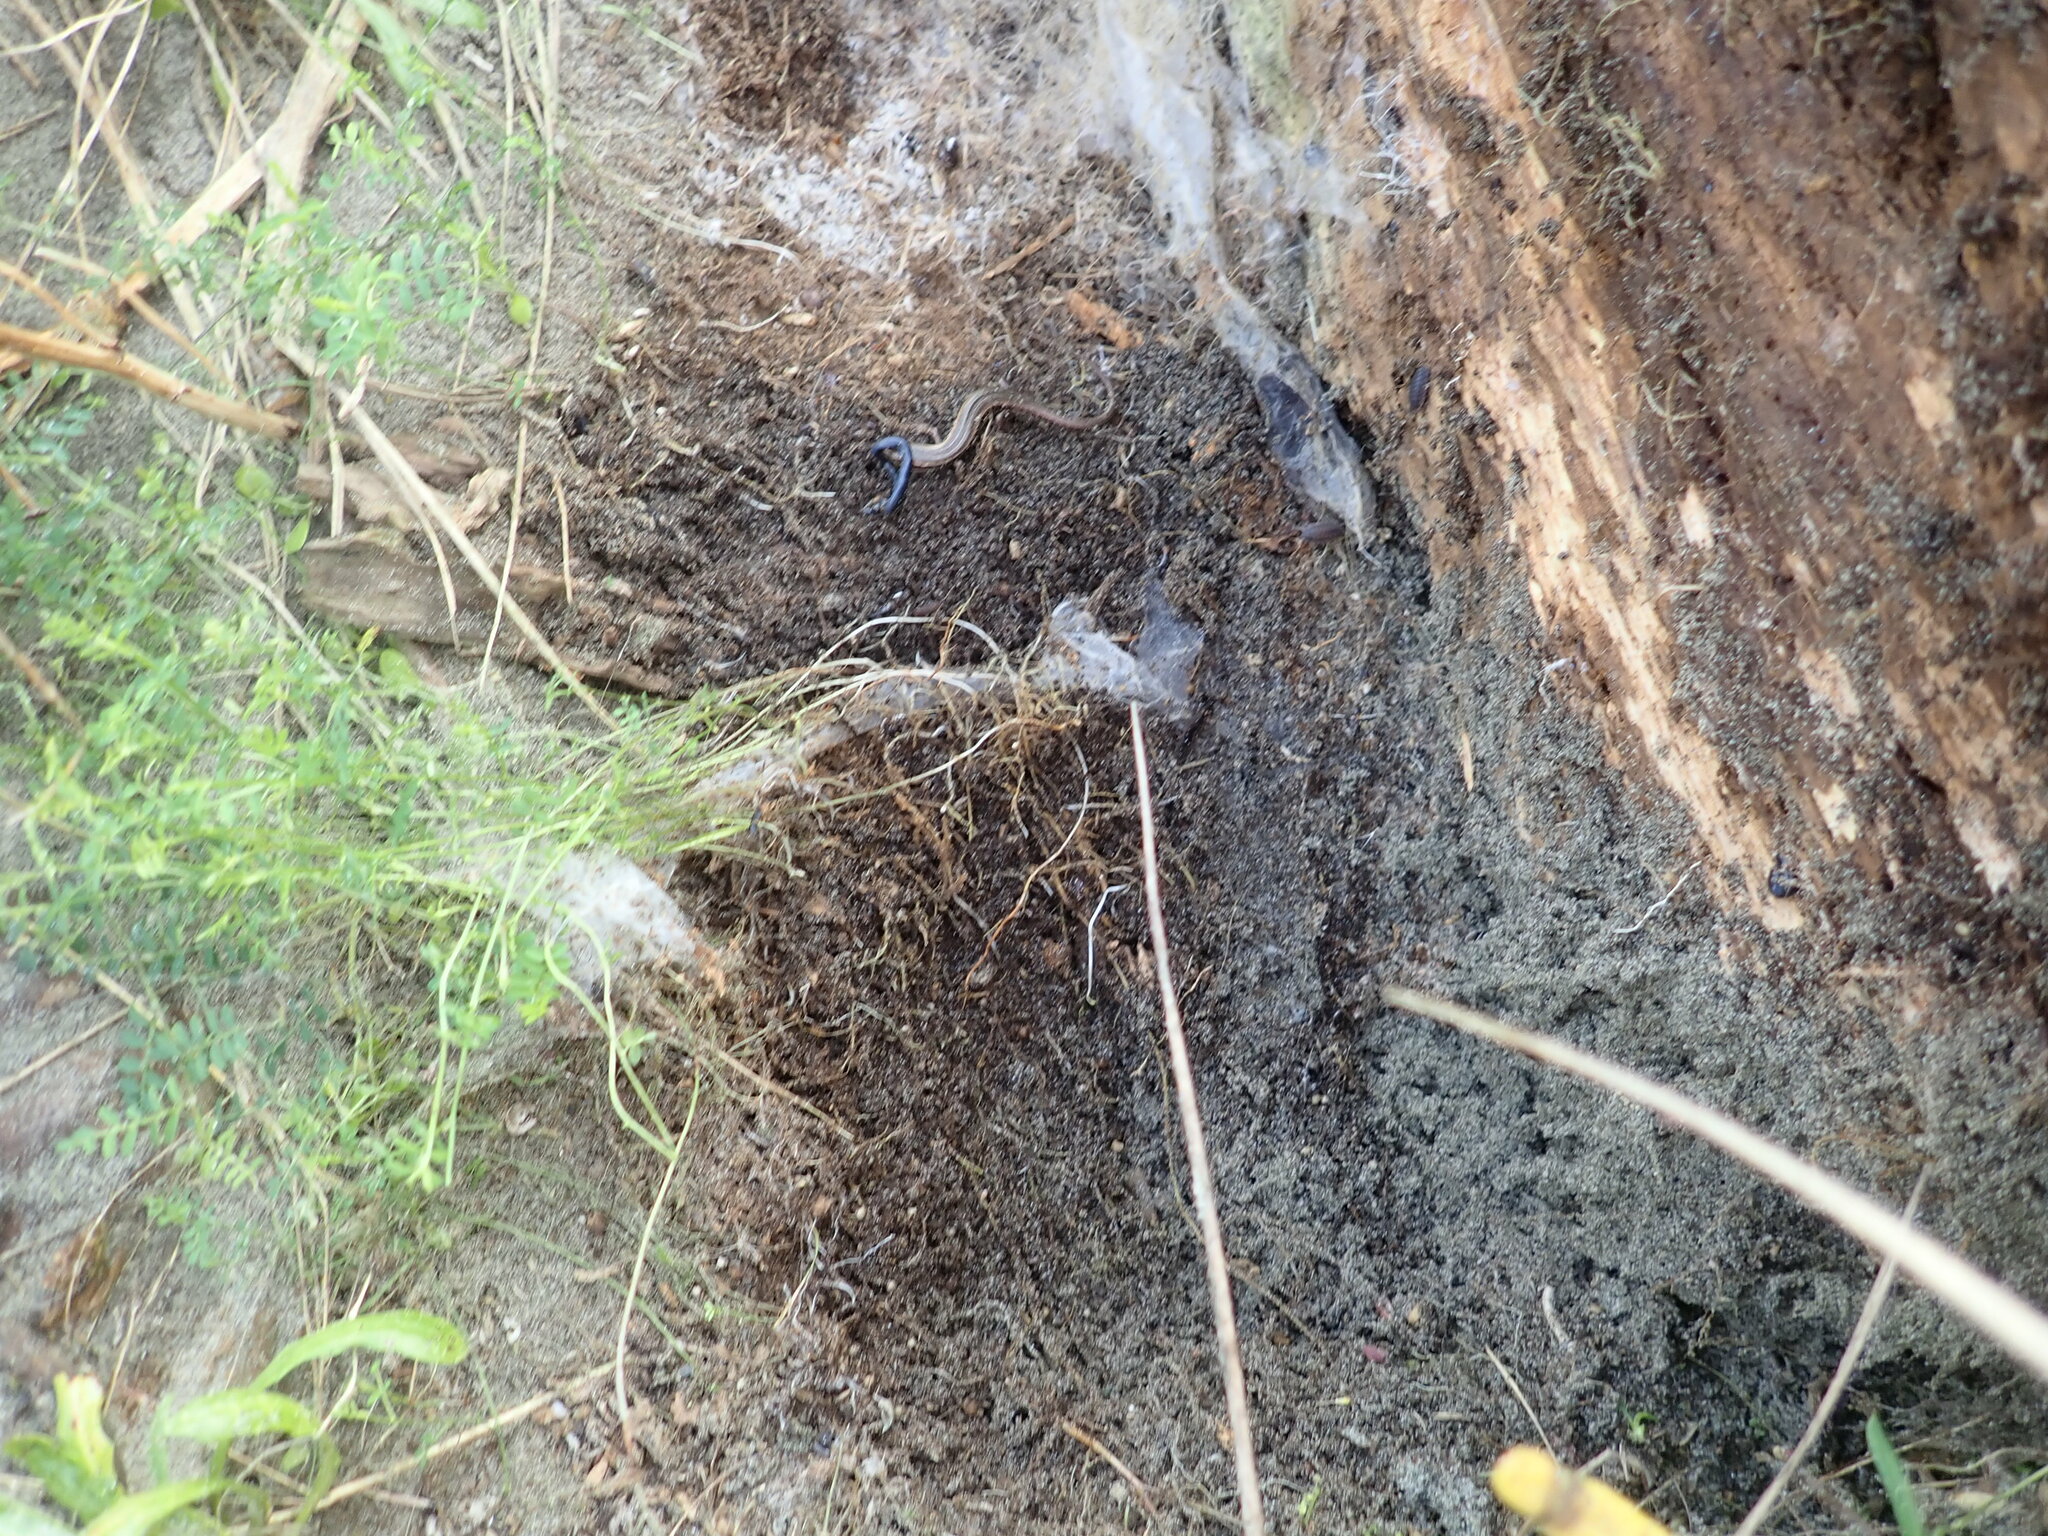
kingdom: Animalia
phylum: Chordata
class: Squamata
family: Scincidae
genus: Oligosoma
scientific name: Oligosoma polychroma
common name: Common new zealand skink
